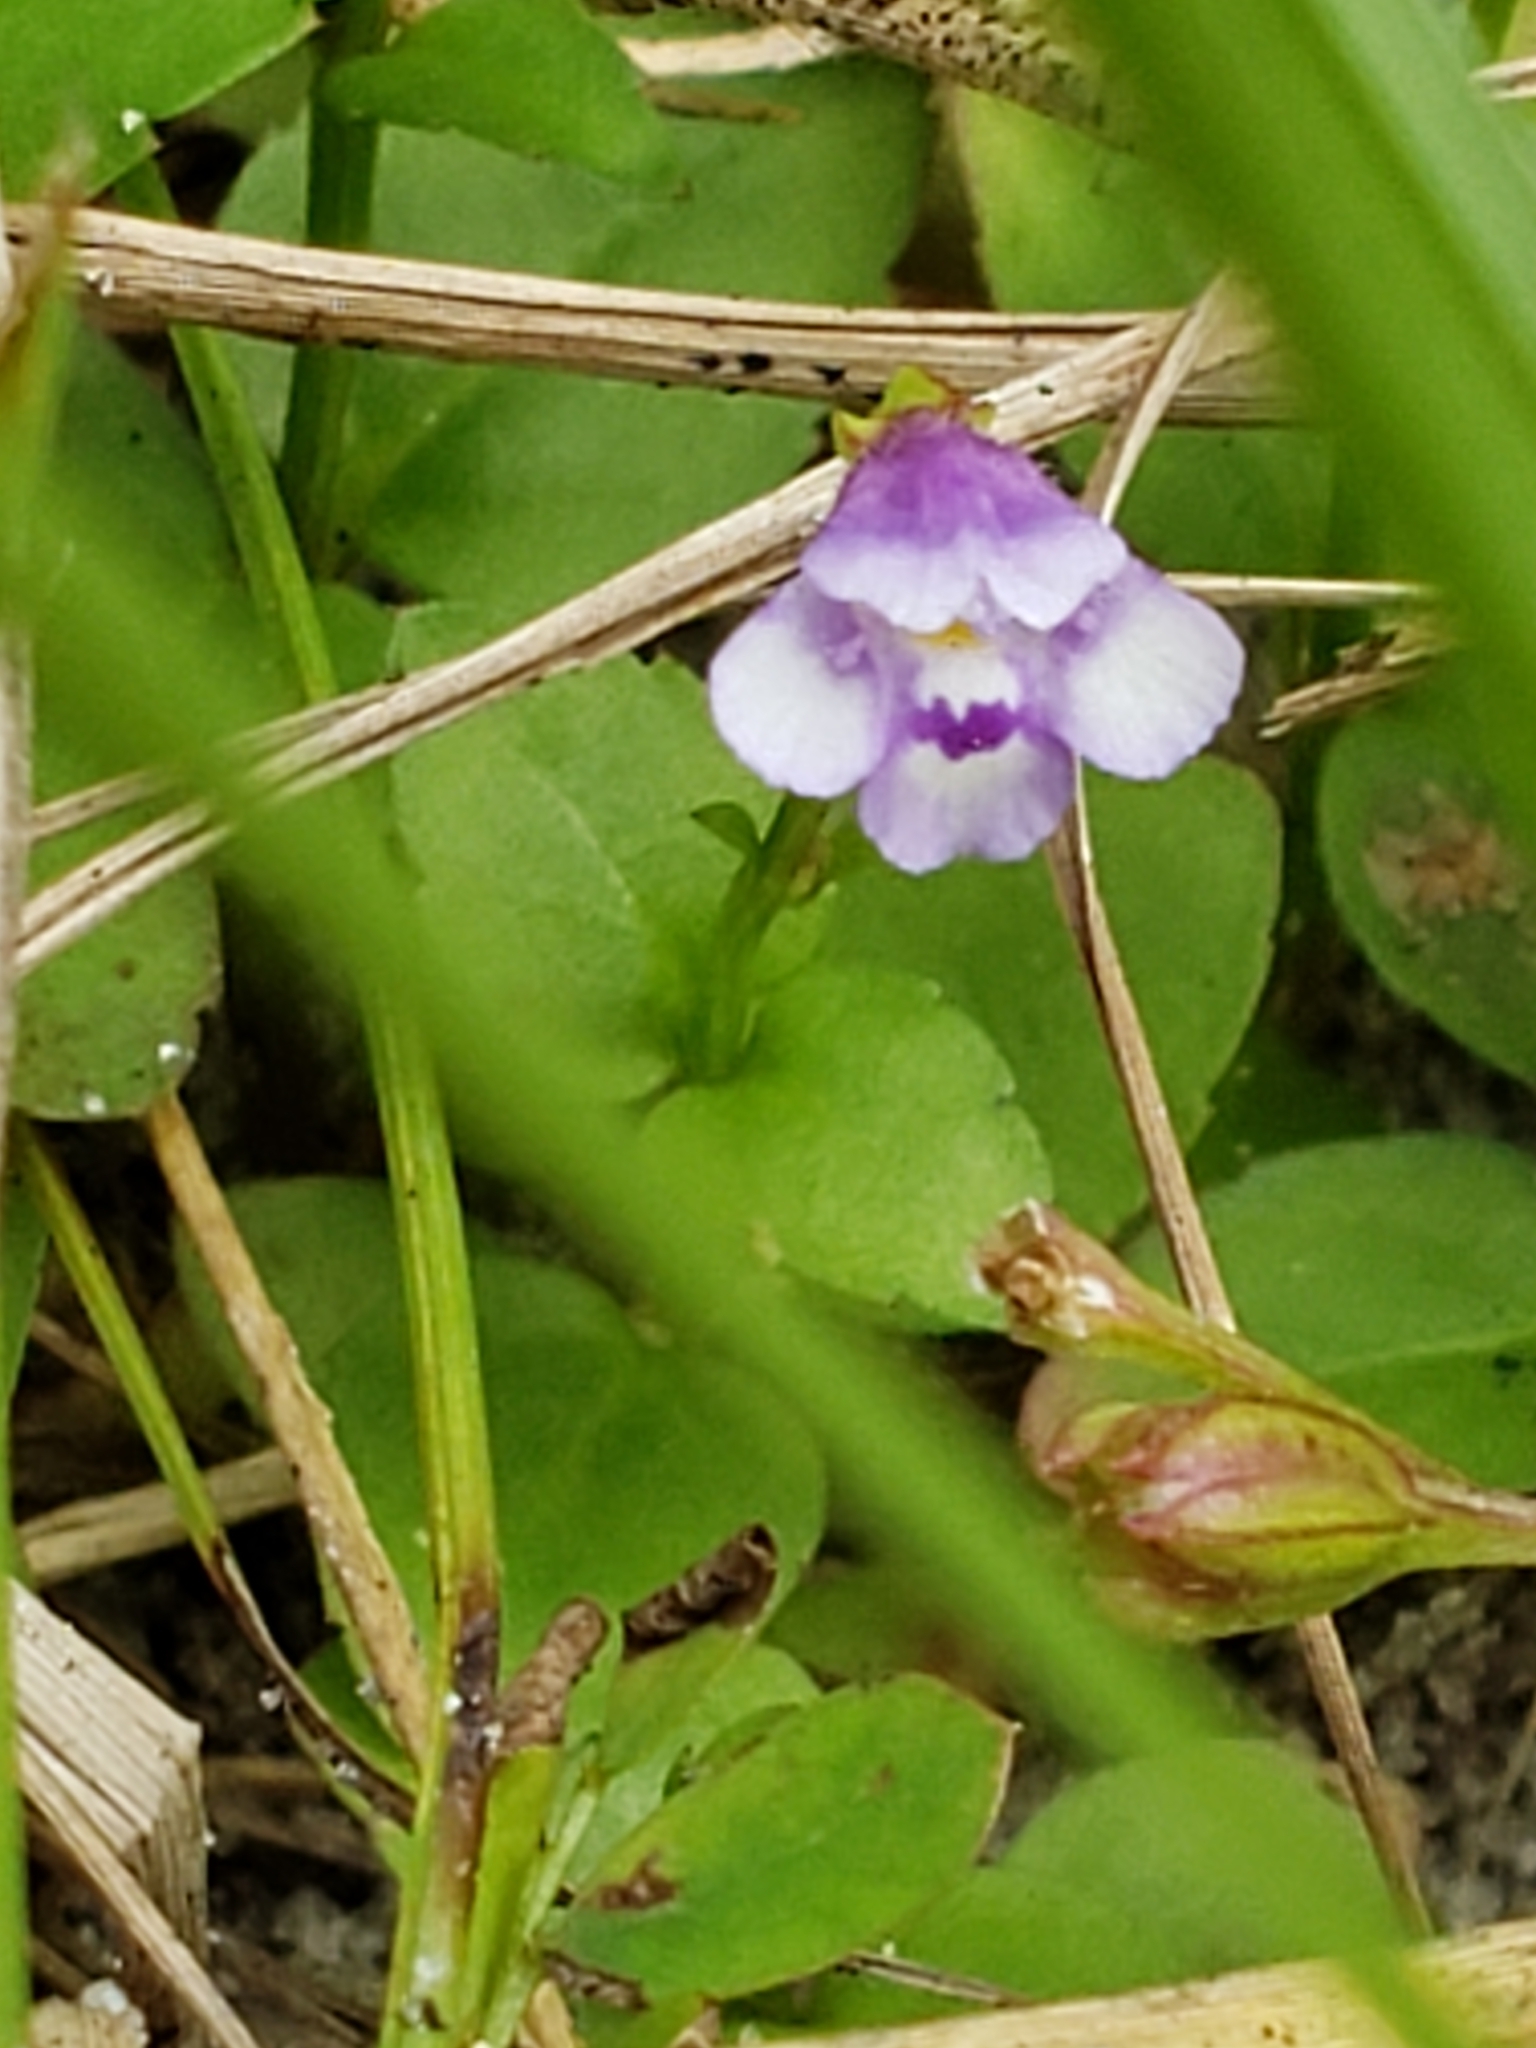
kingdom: Plantae
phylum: Tracheophyta
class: Magnoliopsida
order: Lamiales
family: Linderniaceae
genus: Torenia
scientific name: Torenia crustacea
